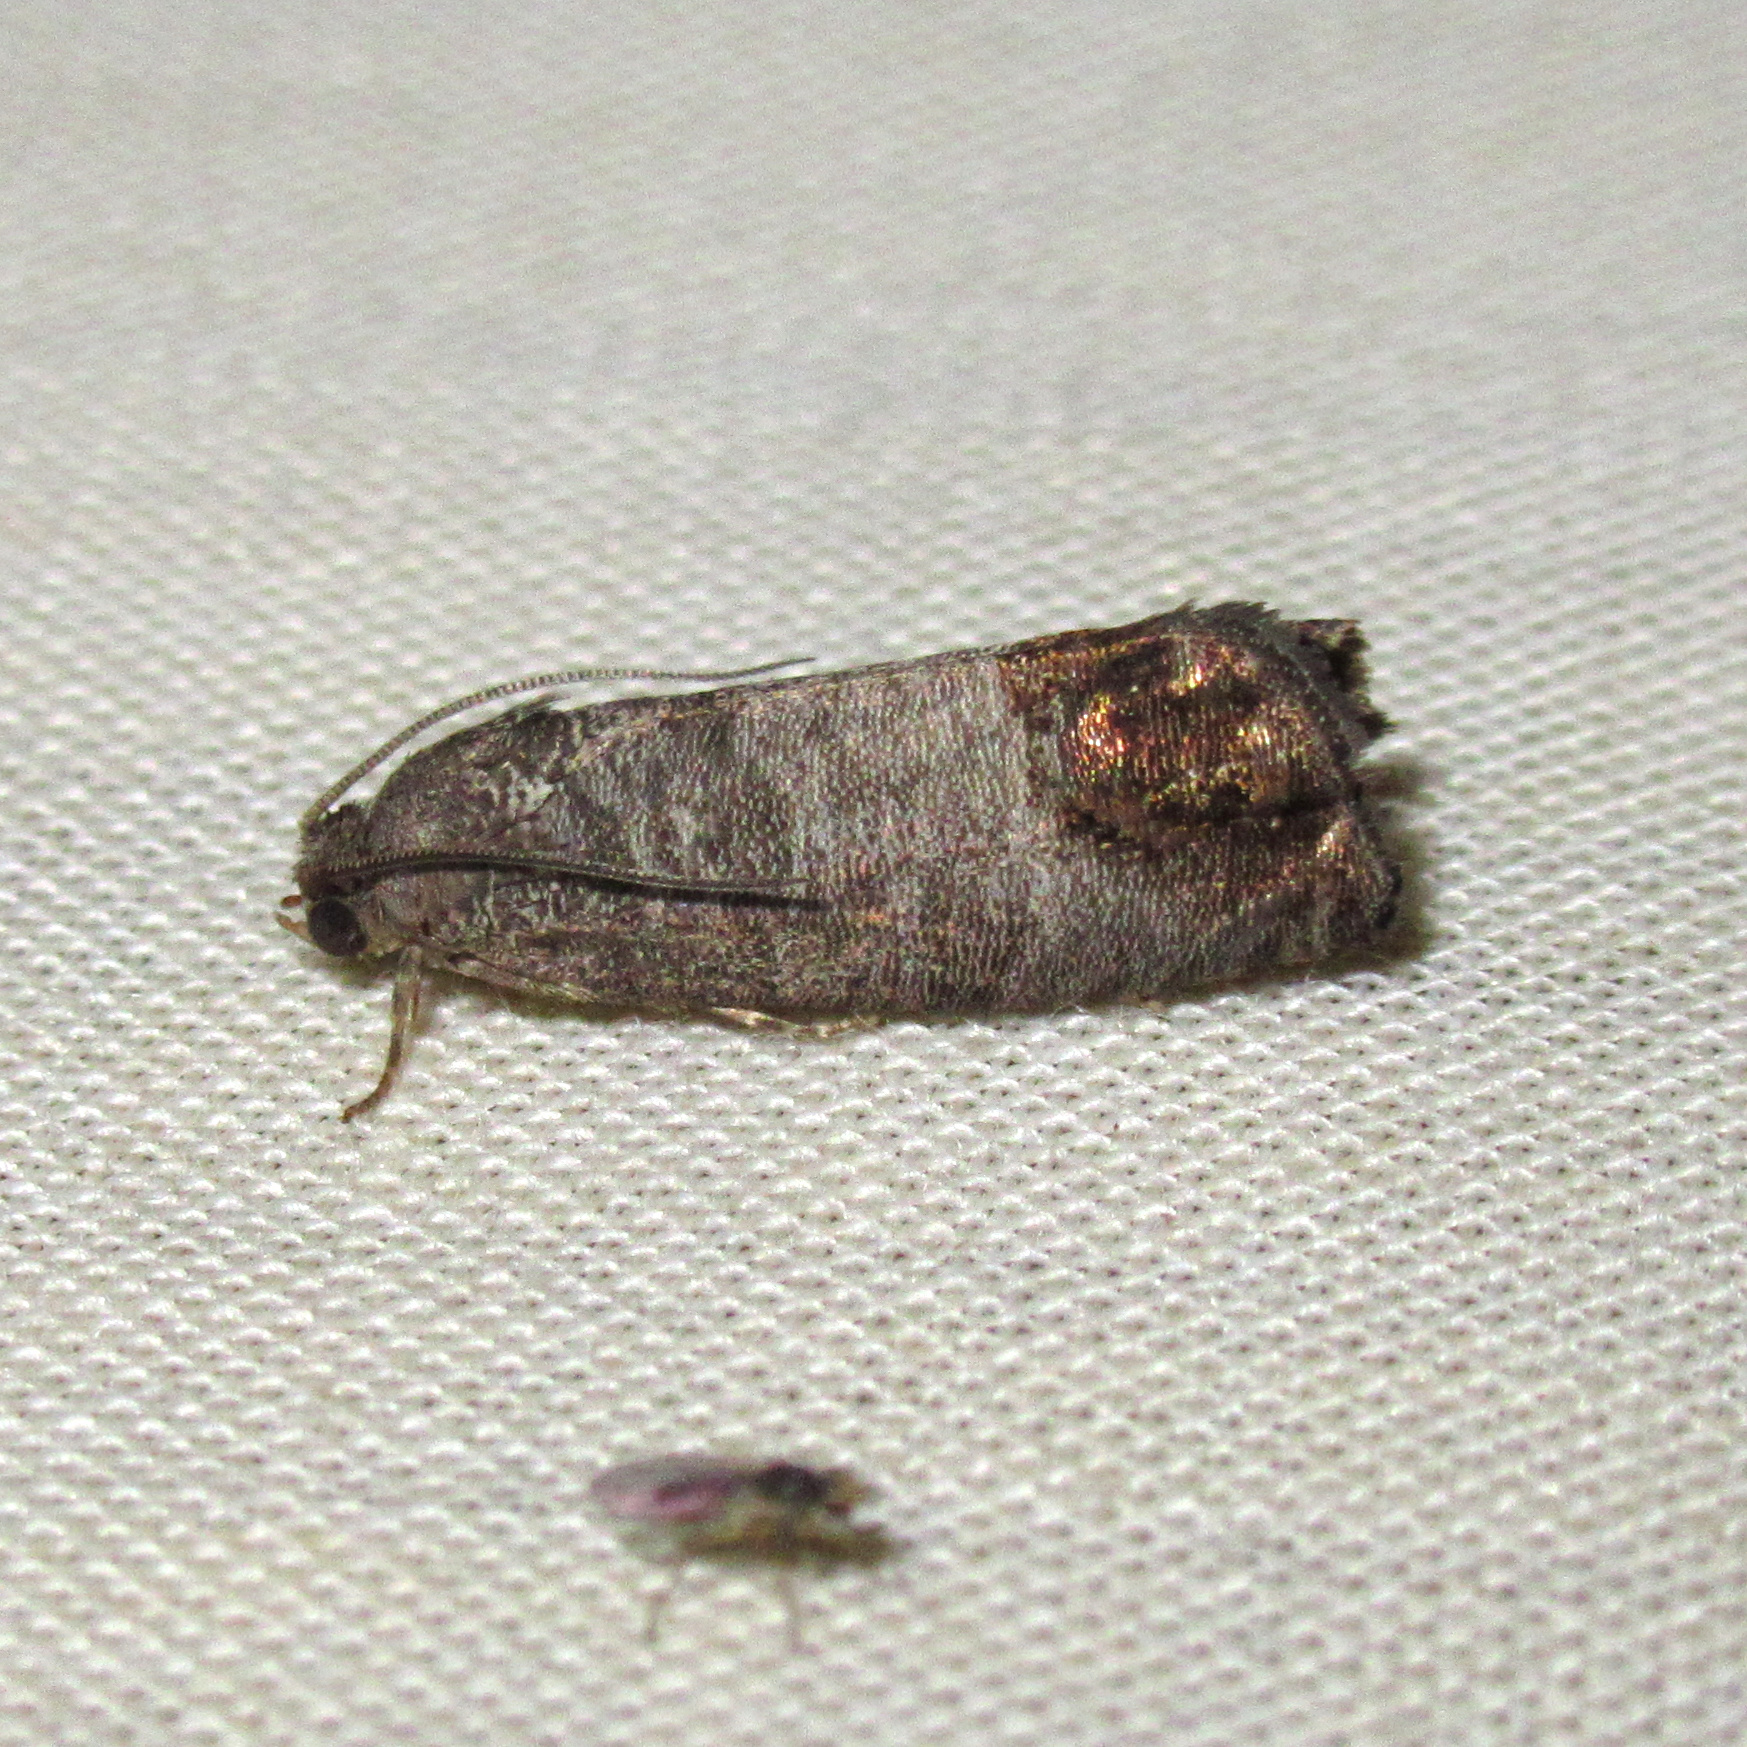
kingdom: Animalia
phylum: Arthropoda
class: Insecta
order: Lepidoptera
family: Tortricidae
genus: Cydia
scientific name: Cydia pomonella
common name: Codling moth
